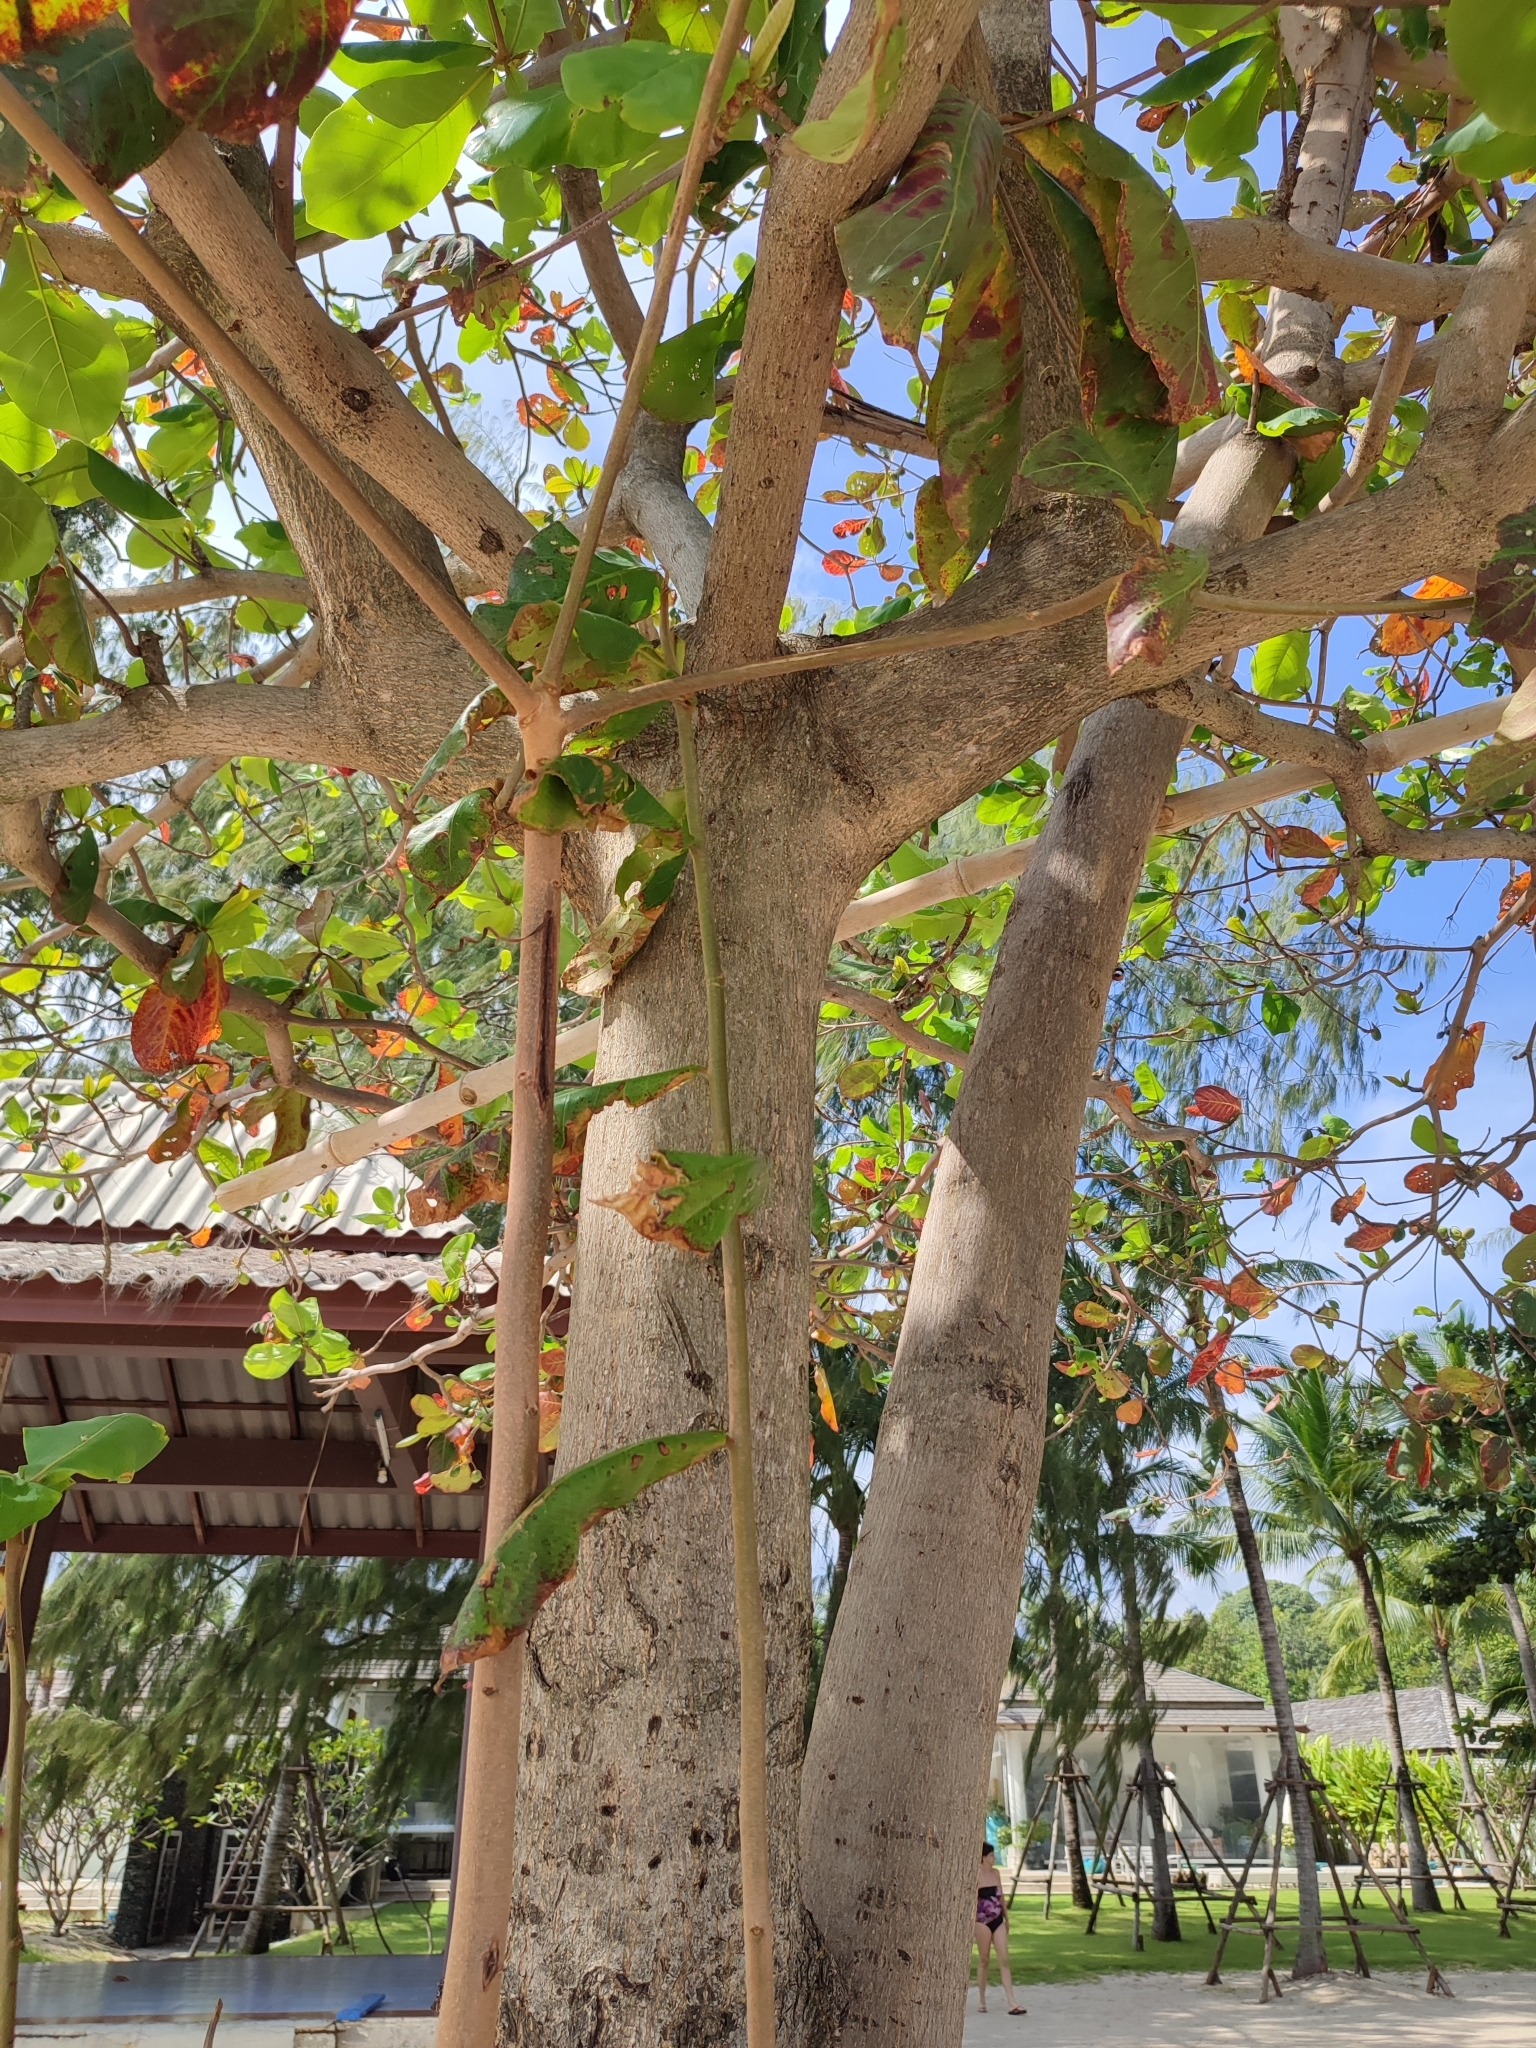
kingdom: Plantae
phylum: Tracheophyta
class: Magnoliopsida
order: Myrtales
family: Combretaceae
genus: Terminalia
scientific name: Terminalia catappa
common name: Tropical almond
